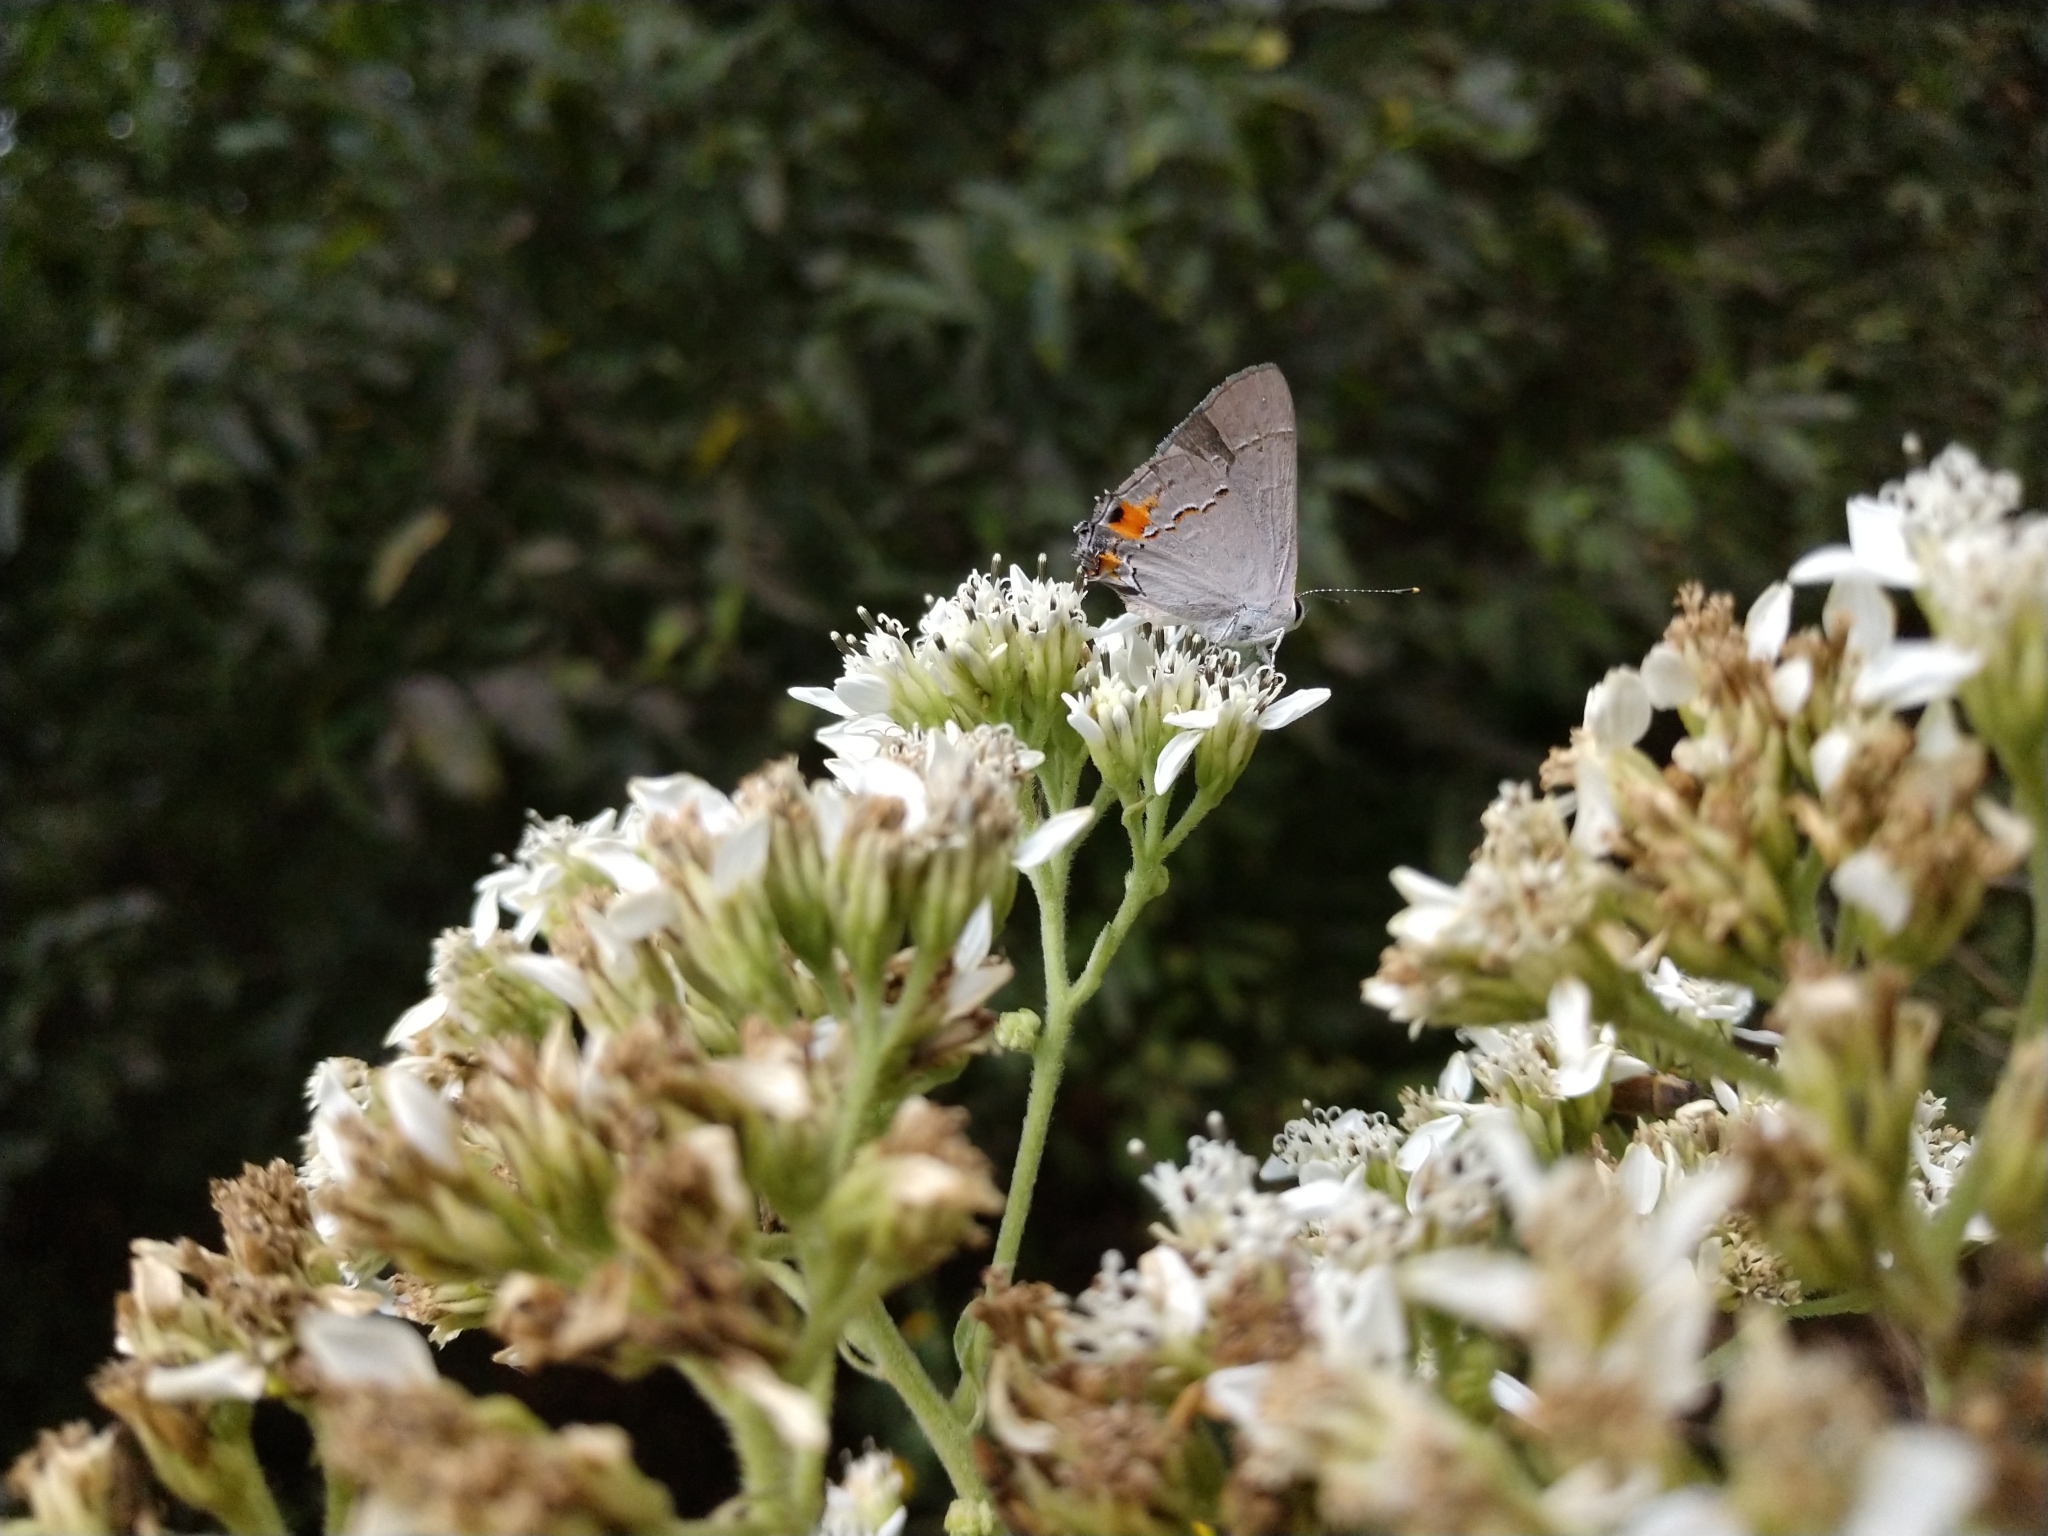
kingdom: Animalia
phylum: Arthropoda
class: Insecta
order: Lepidoptera
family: Lycaenidae
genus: Strymon
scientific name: Strymon melinus
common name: Gray hairstreak
